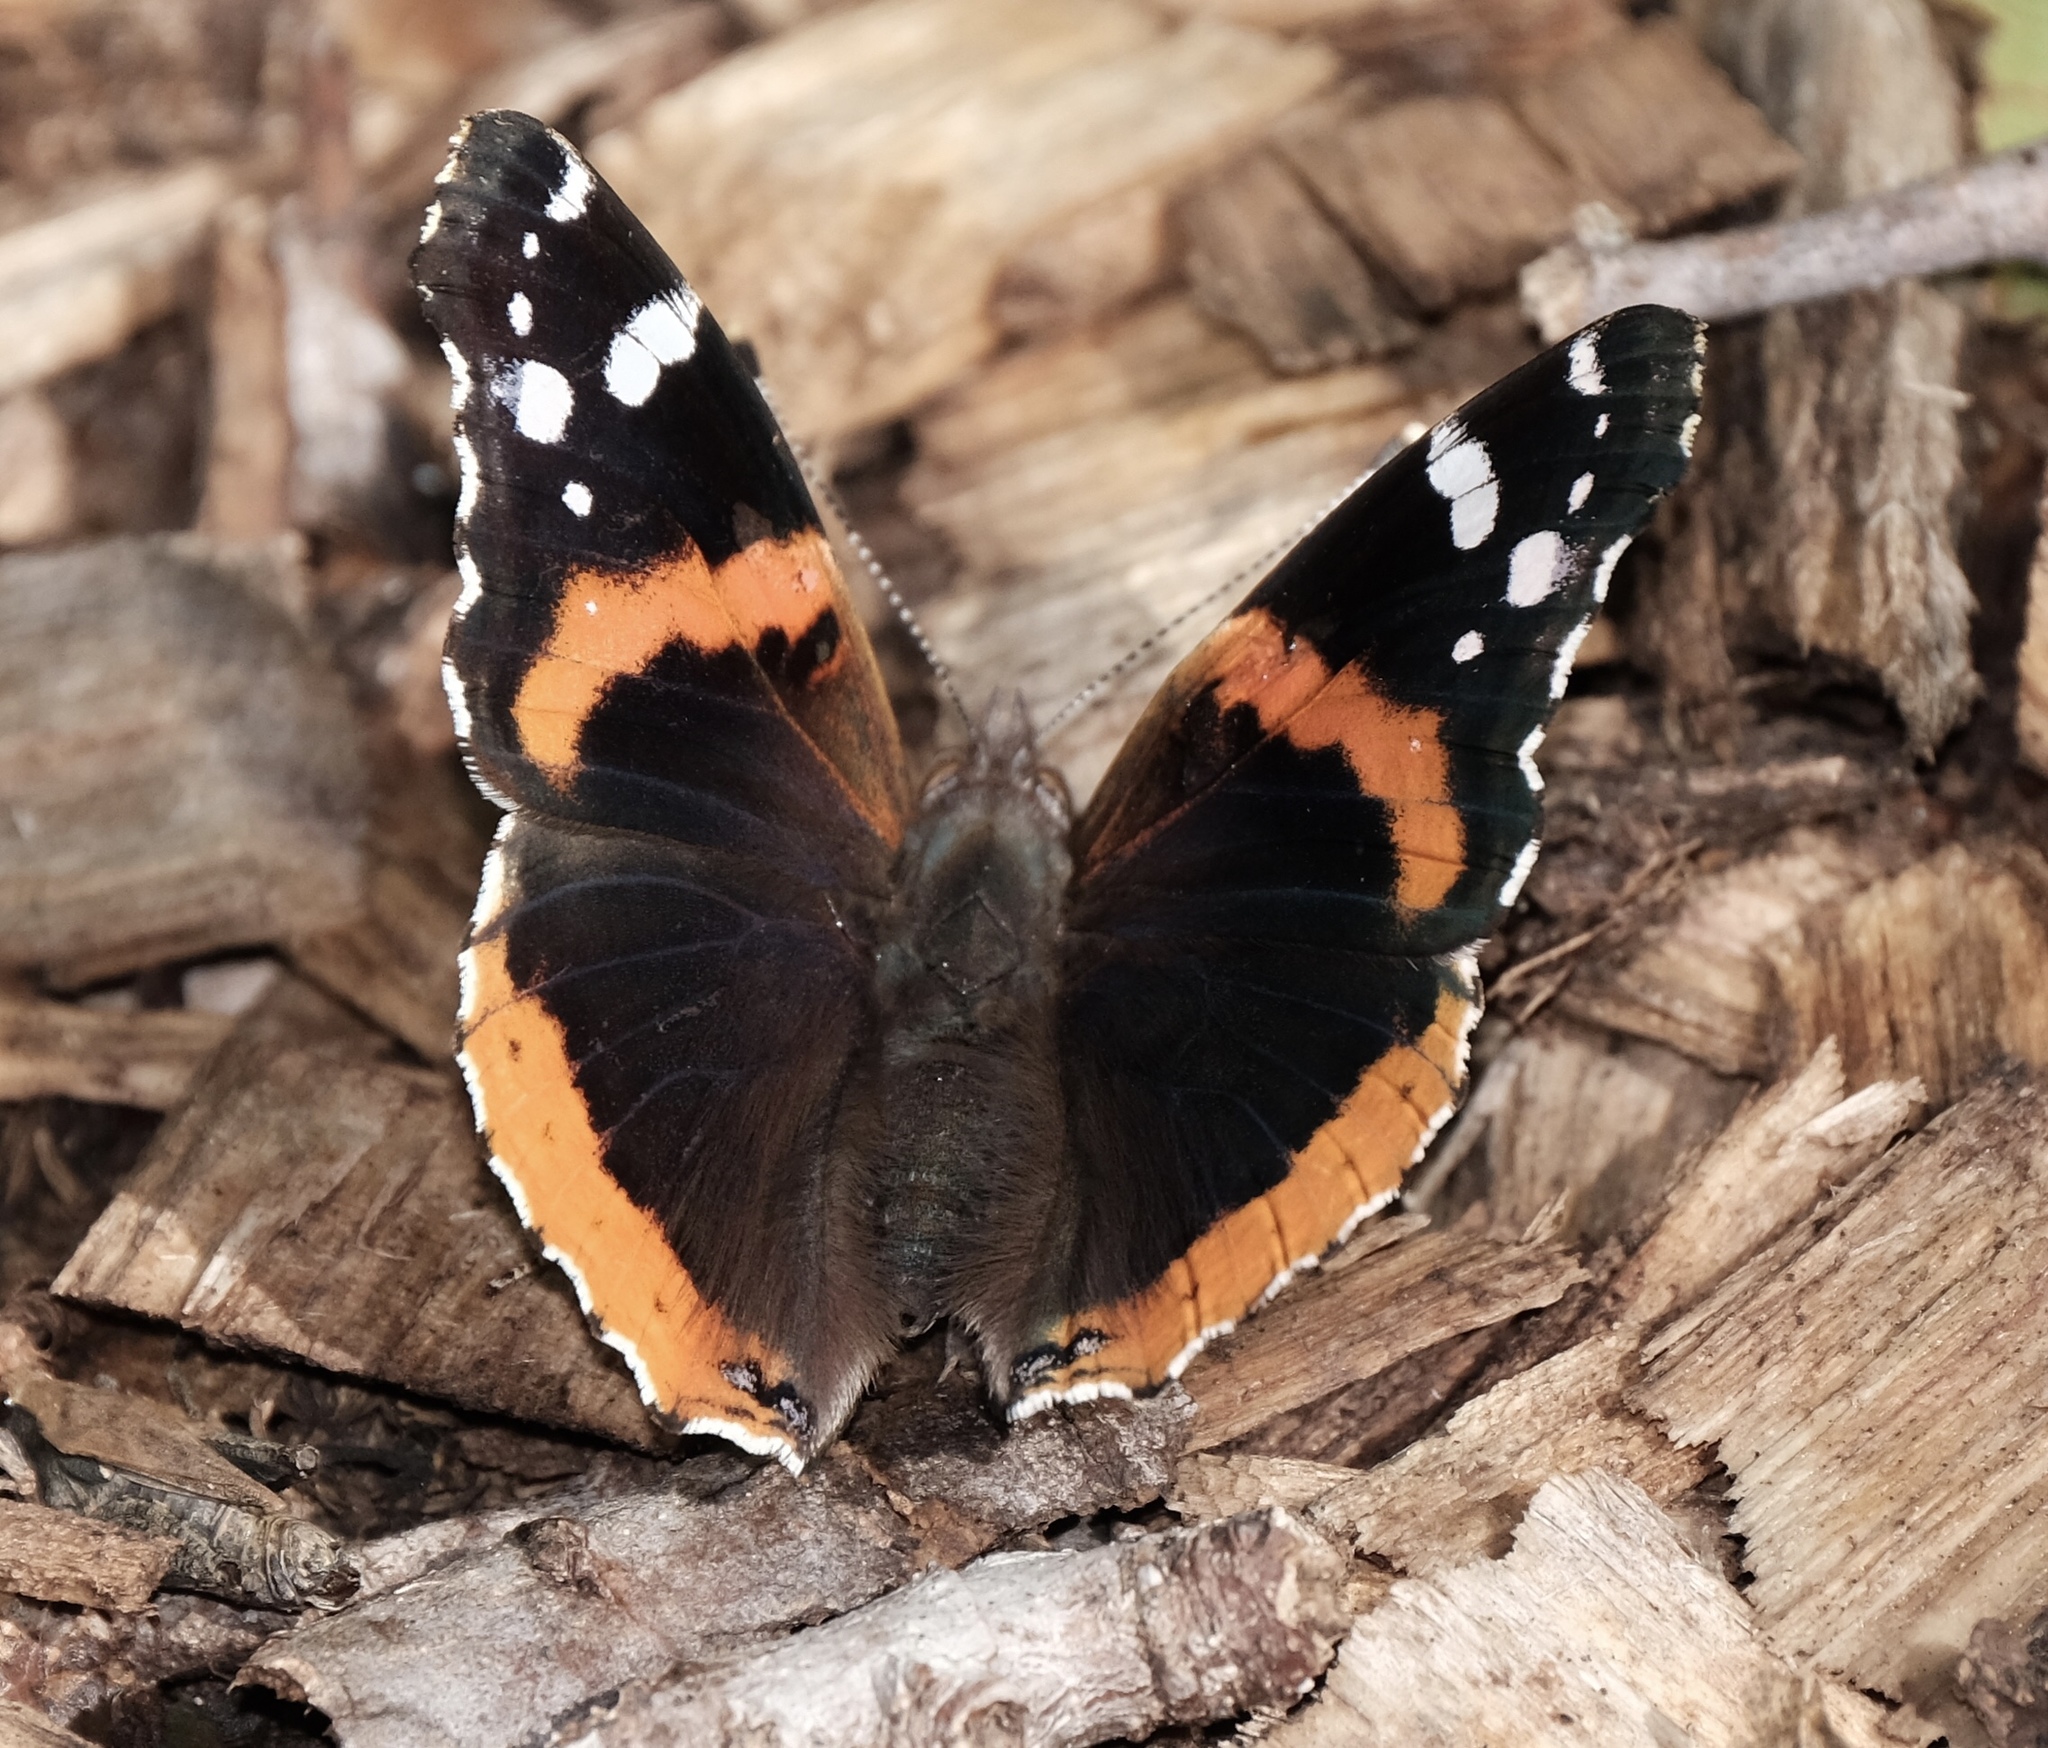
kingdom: Animalia
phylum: Arthropoda
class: Insecta
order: Lepidoptera
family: Nymphalidae
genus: Vanessa
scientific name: Vanessa atalanta
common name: Red admiral
